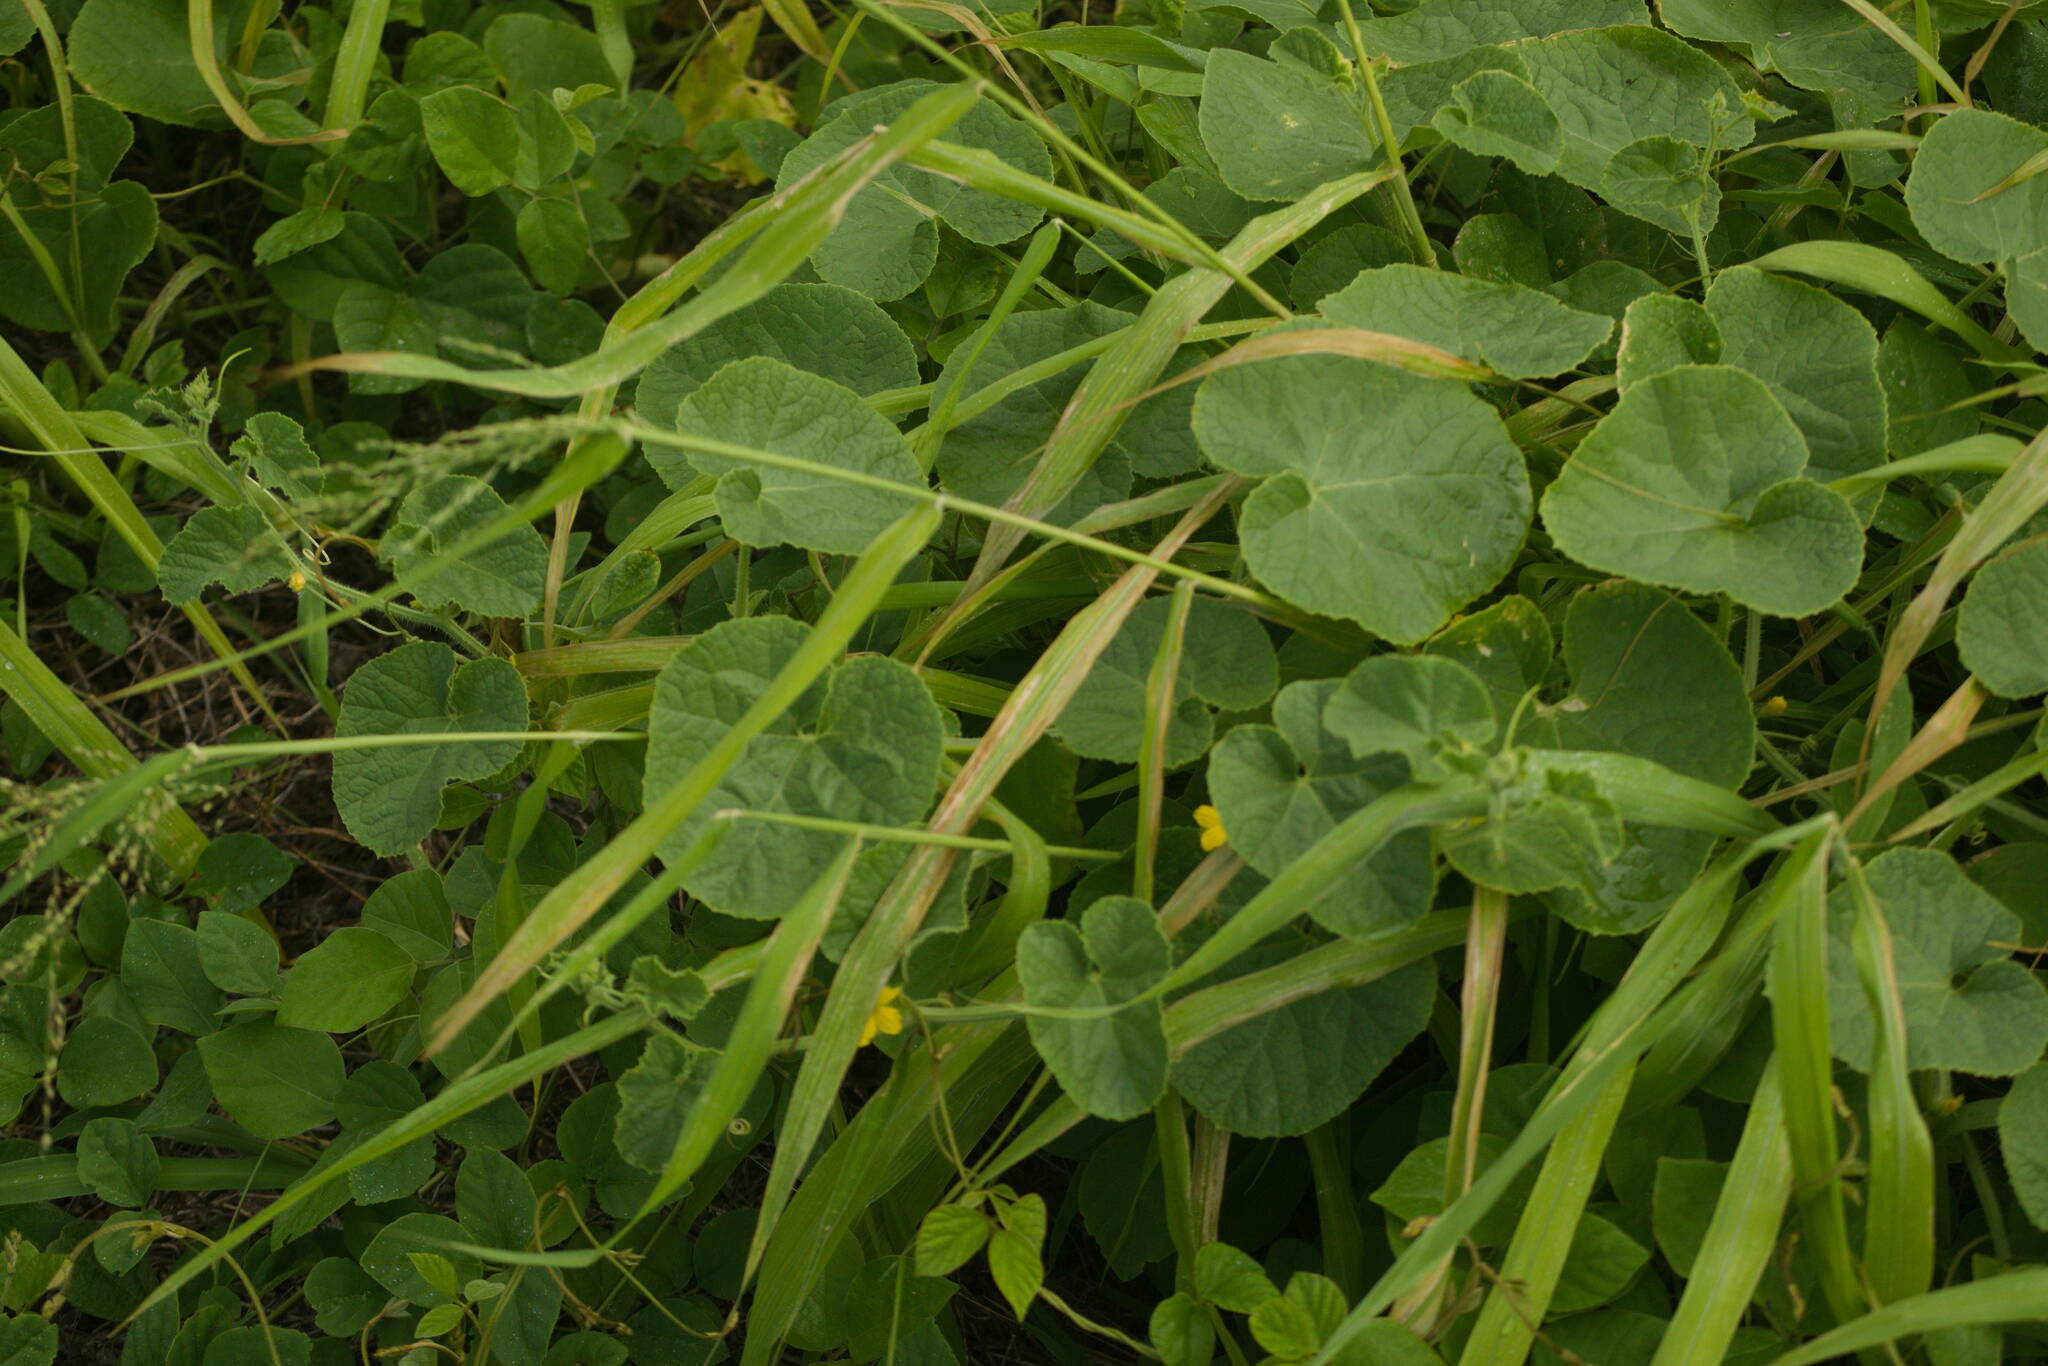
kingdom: Plantae
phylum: Tracheophyta
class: Magnoliopsida
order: Cucurbitales
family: Cucurbitaceae
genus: Cucumis
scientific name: Cucumis dipsaceus
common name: Hedgehog gourd
